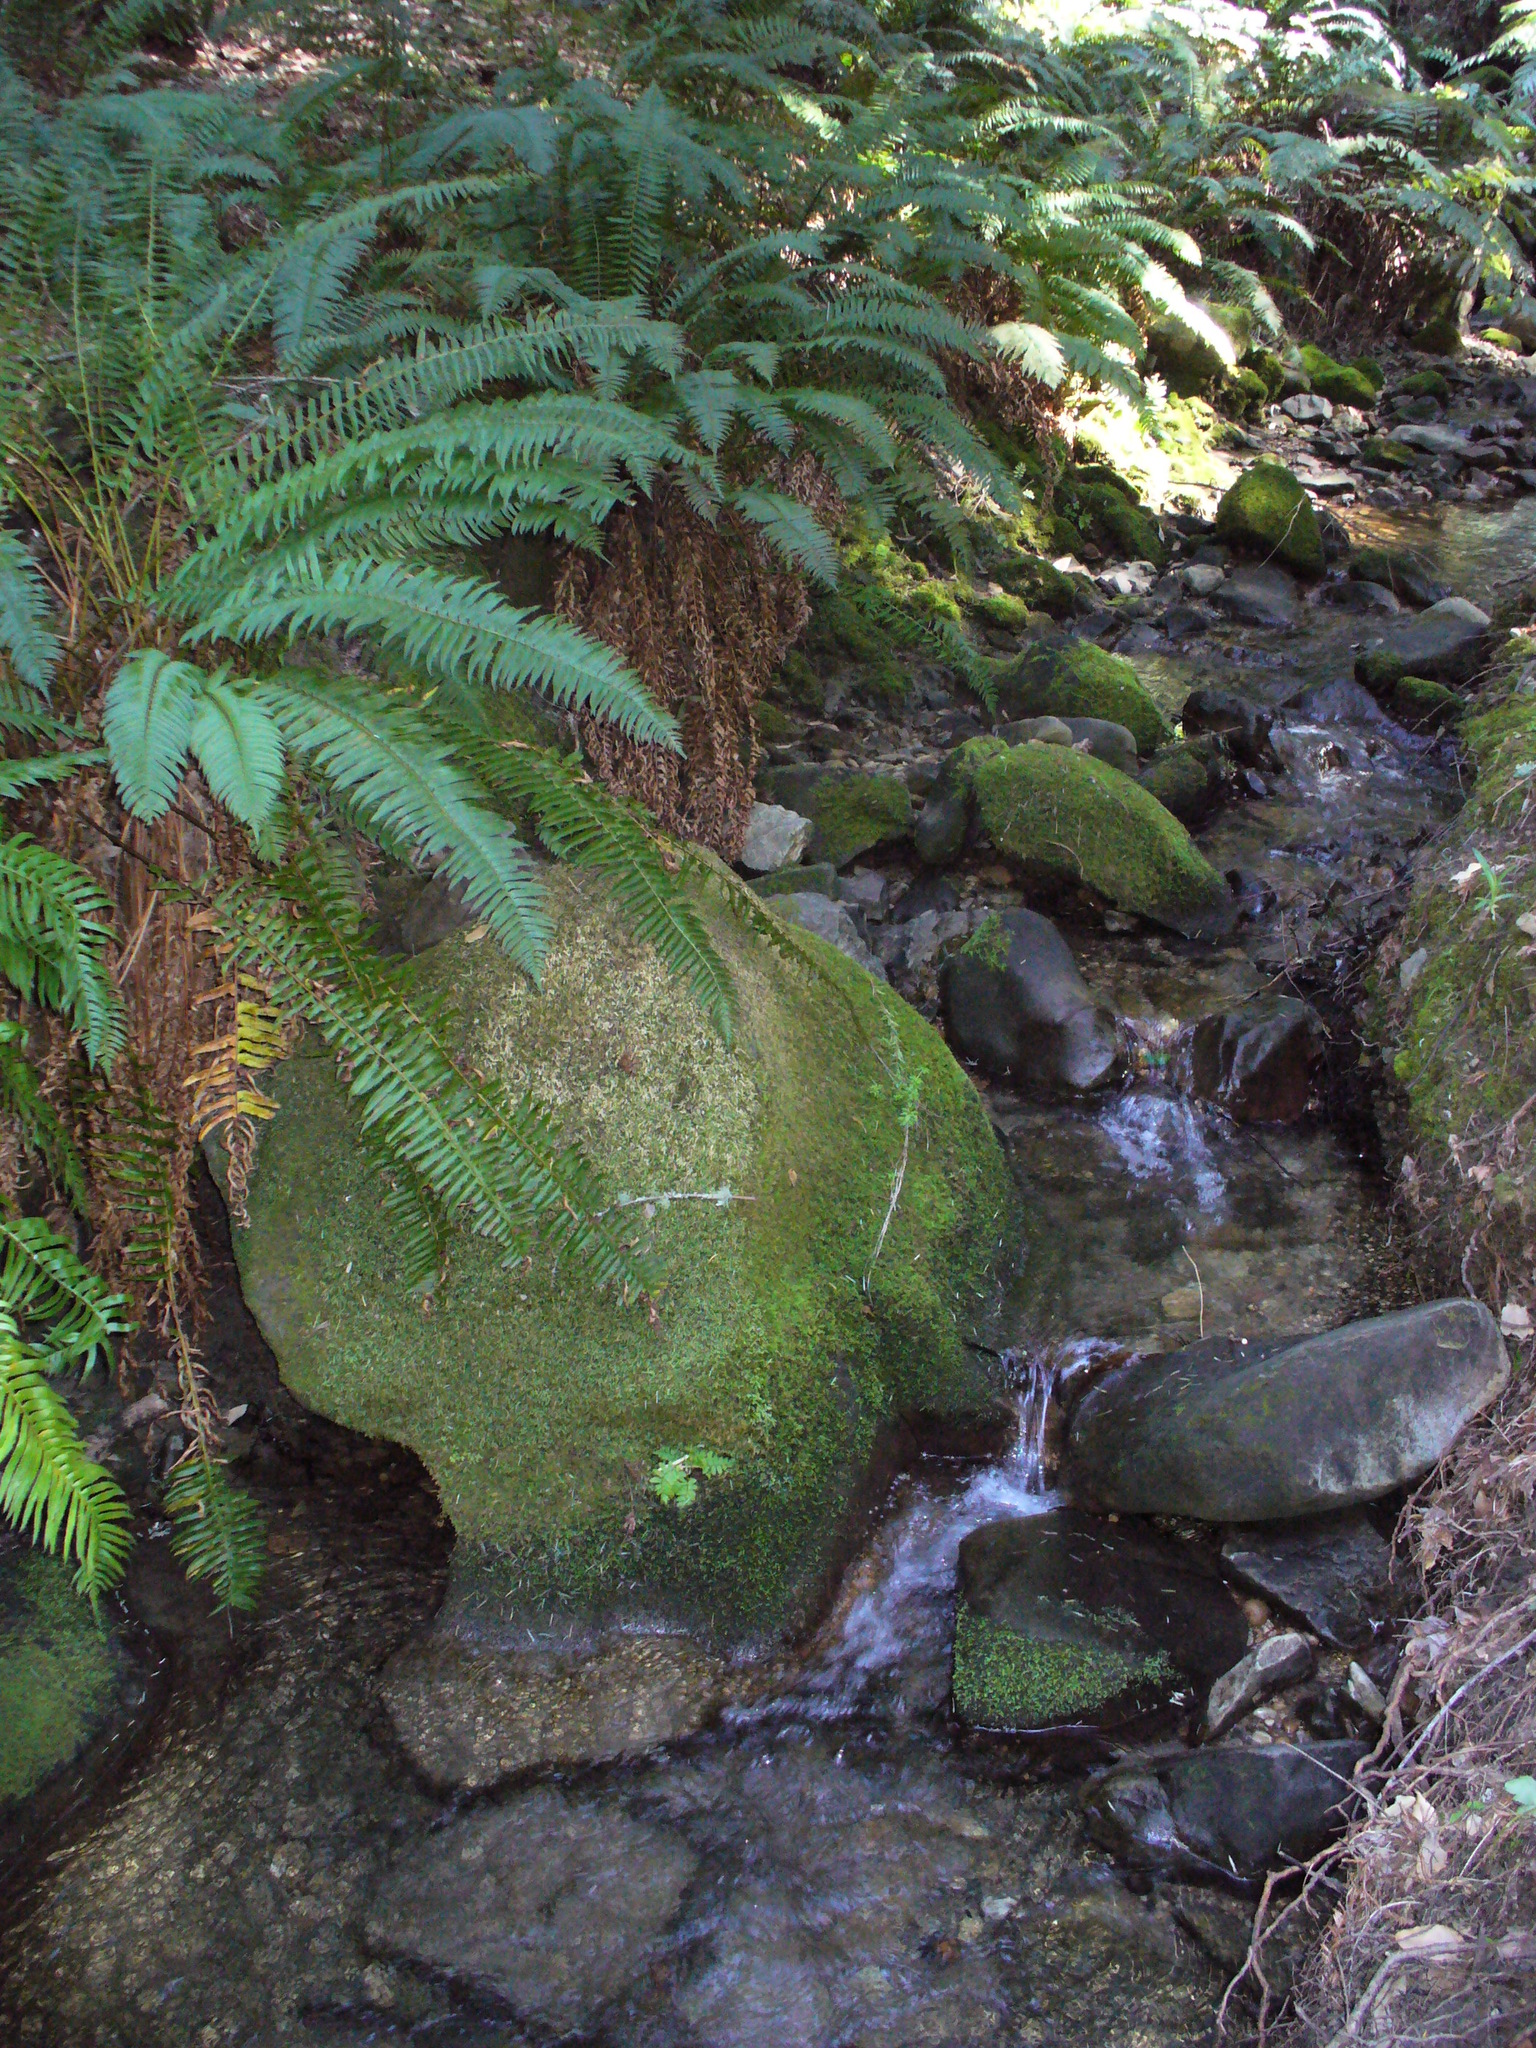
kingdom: Plantae
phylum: Tracheophyta
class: Polypodiopsida
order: Polypodiales
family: Dryopteridaceae
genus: Polystichum
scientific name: Polystichum munitum
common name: Western sword-fern
